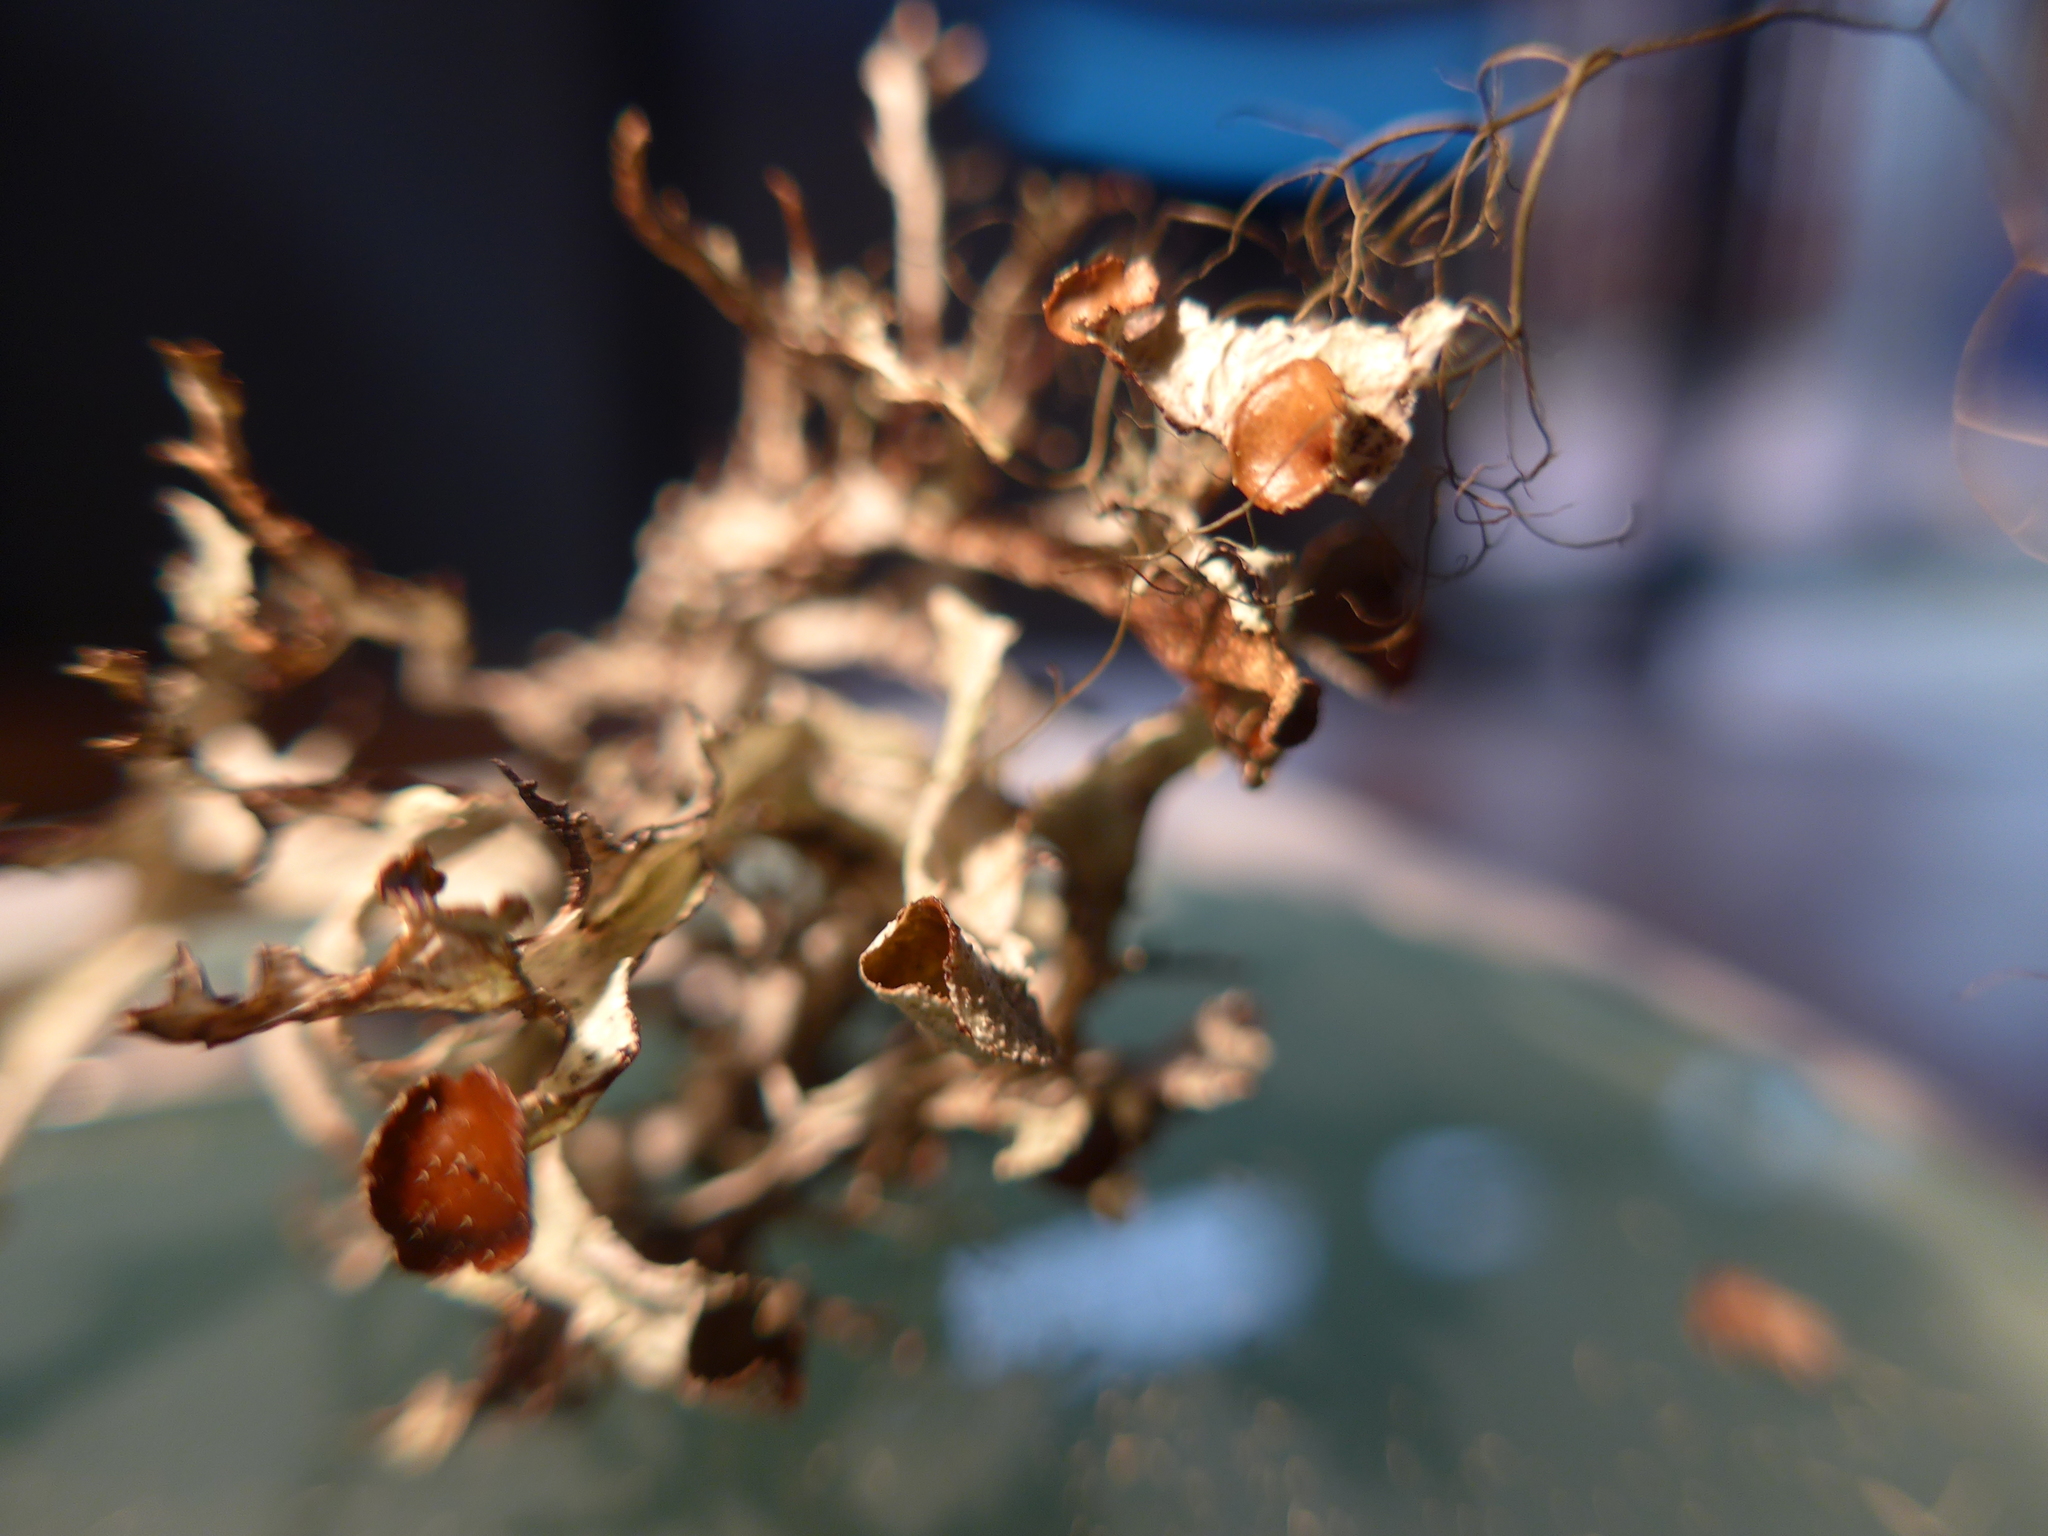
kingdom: Fungi
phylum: Ascomycota
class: Lecanoromycetes
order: Lecanorales
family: Parmeliaceae
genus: Platismatia
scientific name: Platismatia stenophylla
